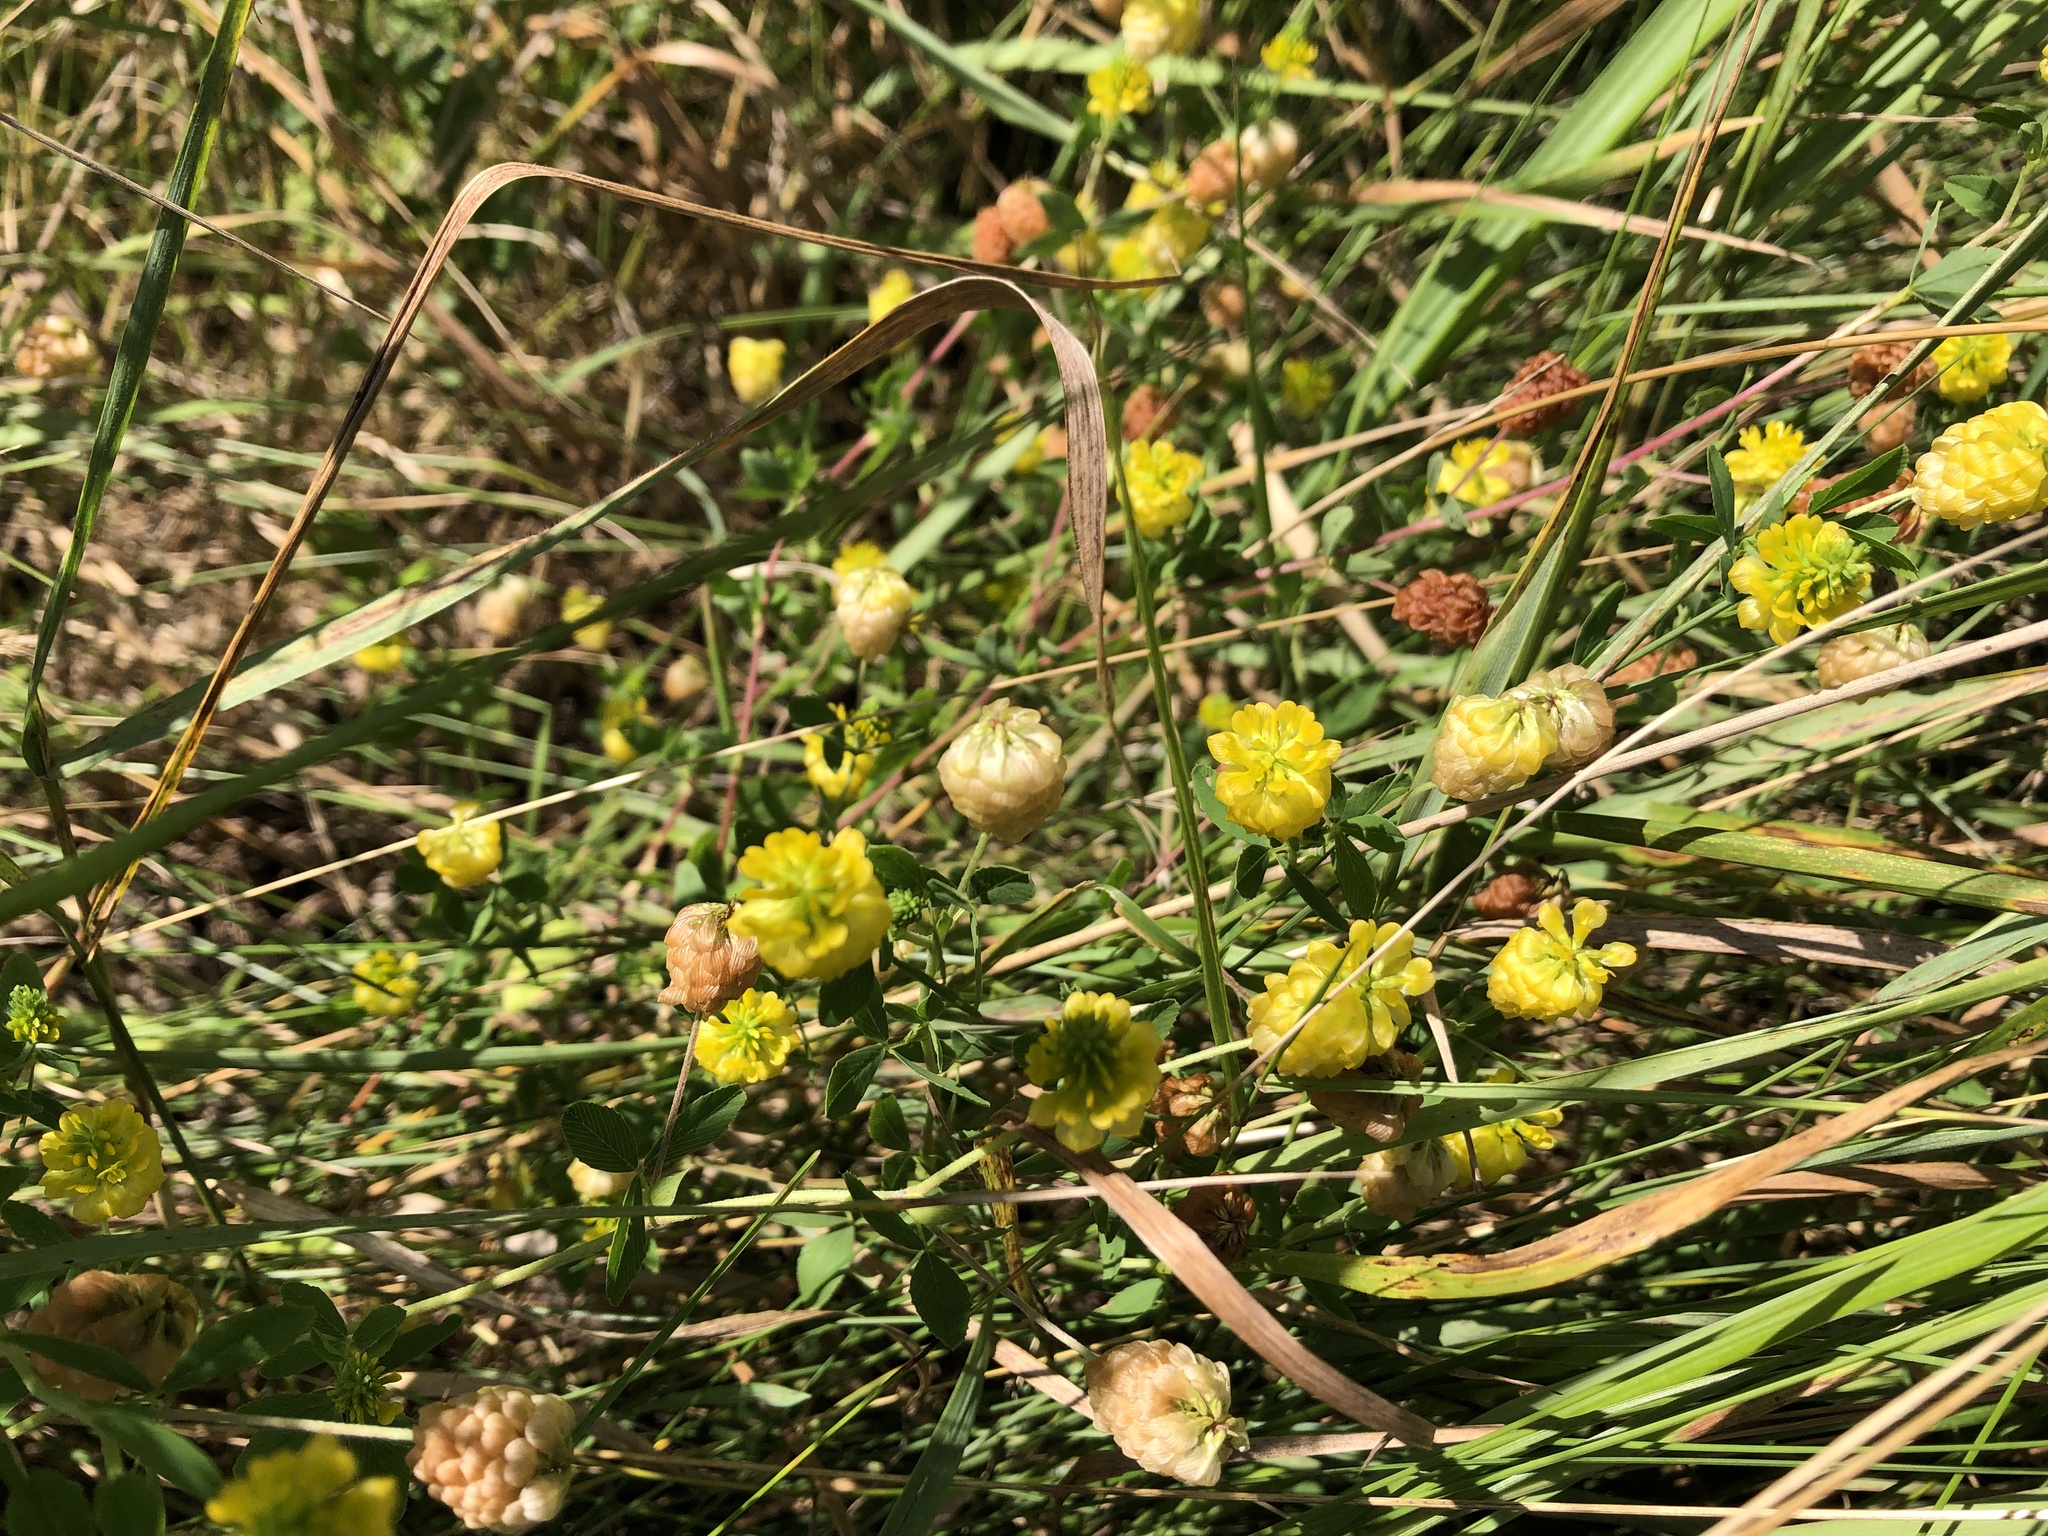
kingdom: Plantae
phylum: Tracheophyta
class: Magnoliopsida
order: Fabales
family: Fabaceae
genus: Trifolium
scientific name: Trifolium aureum
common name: Golden clover
